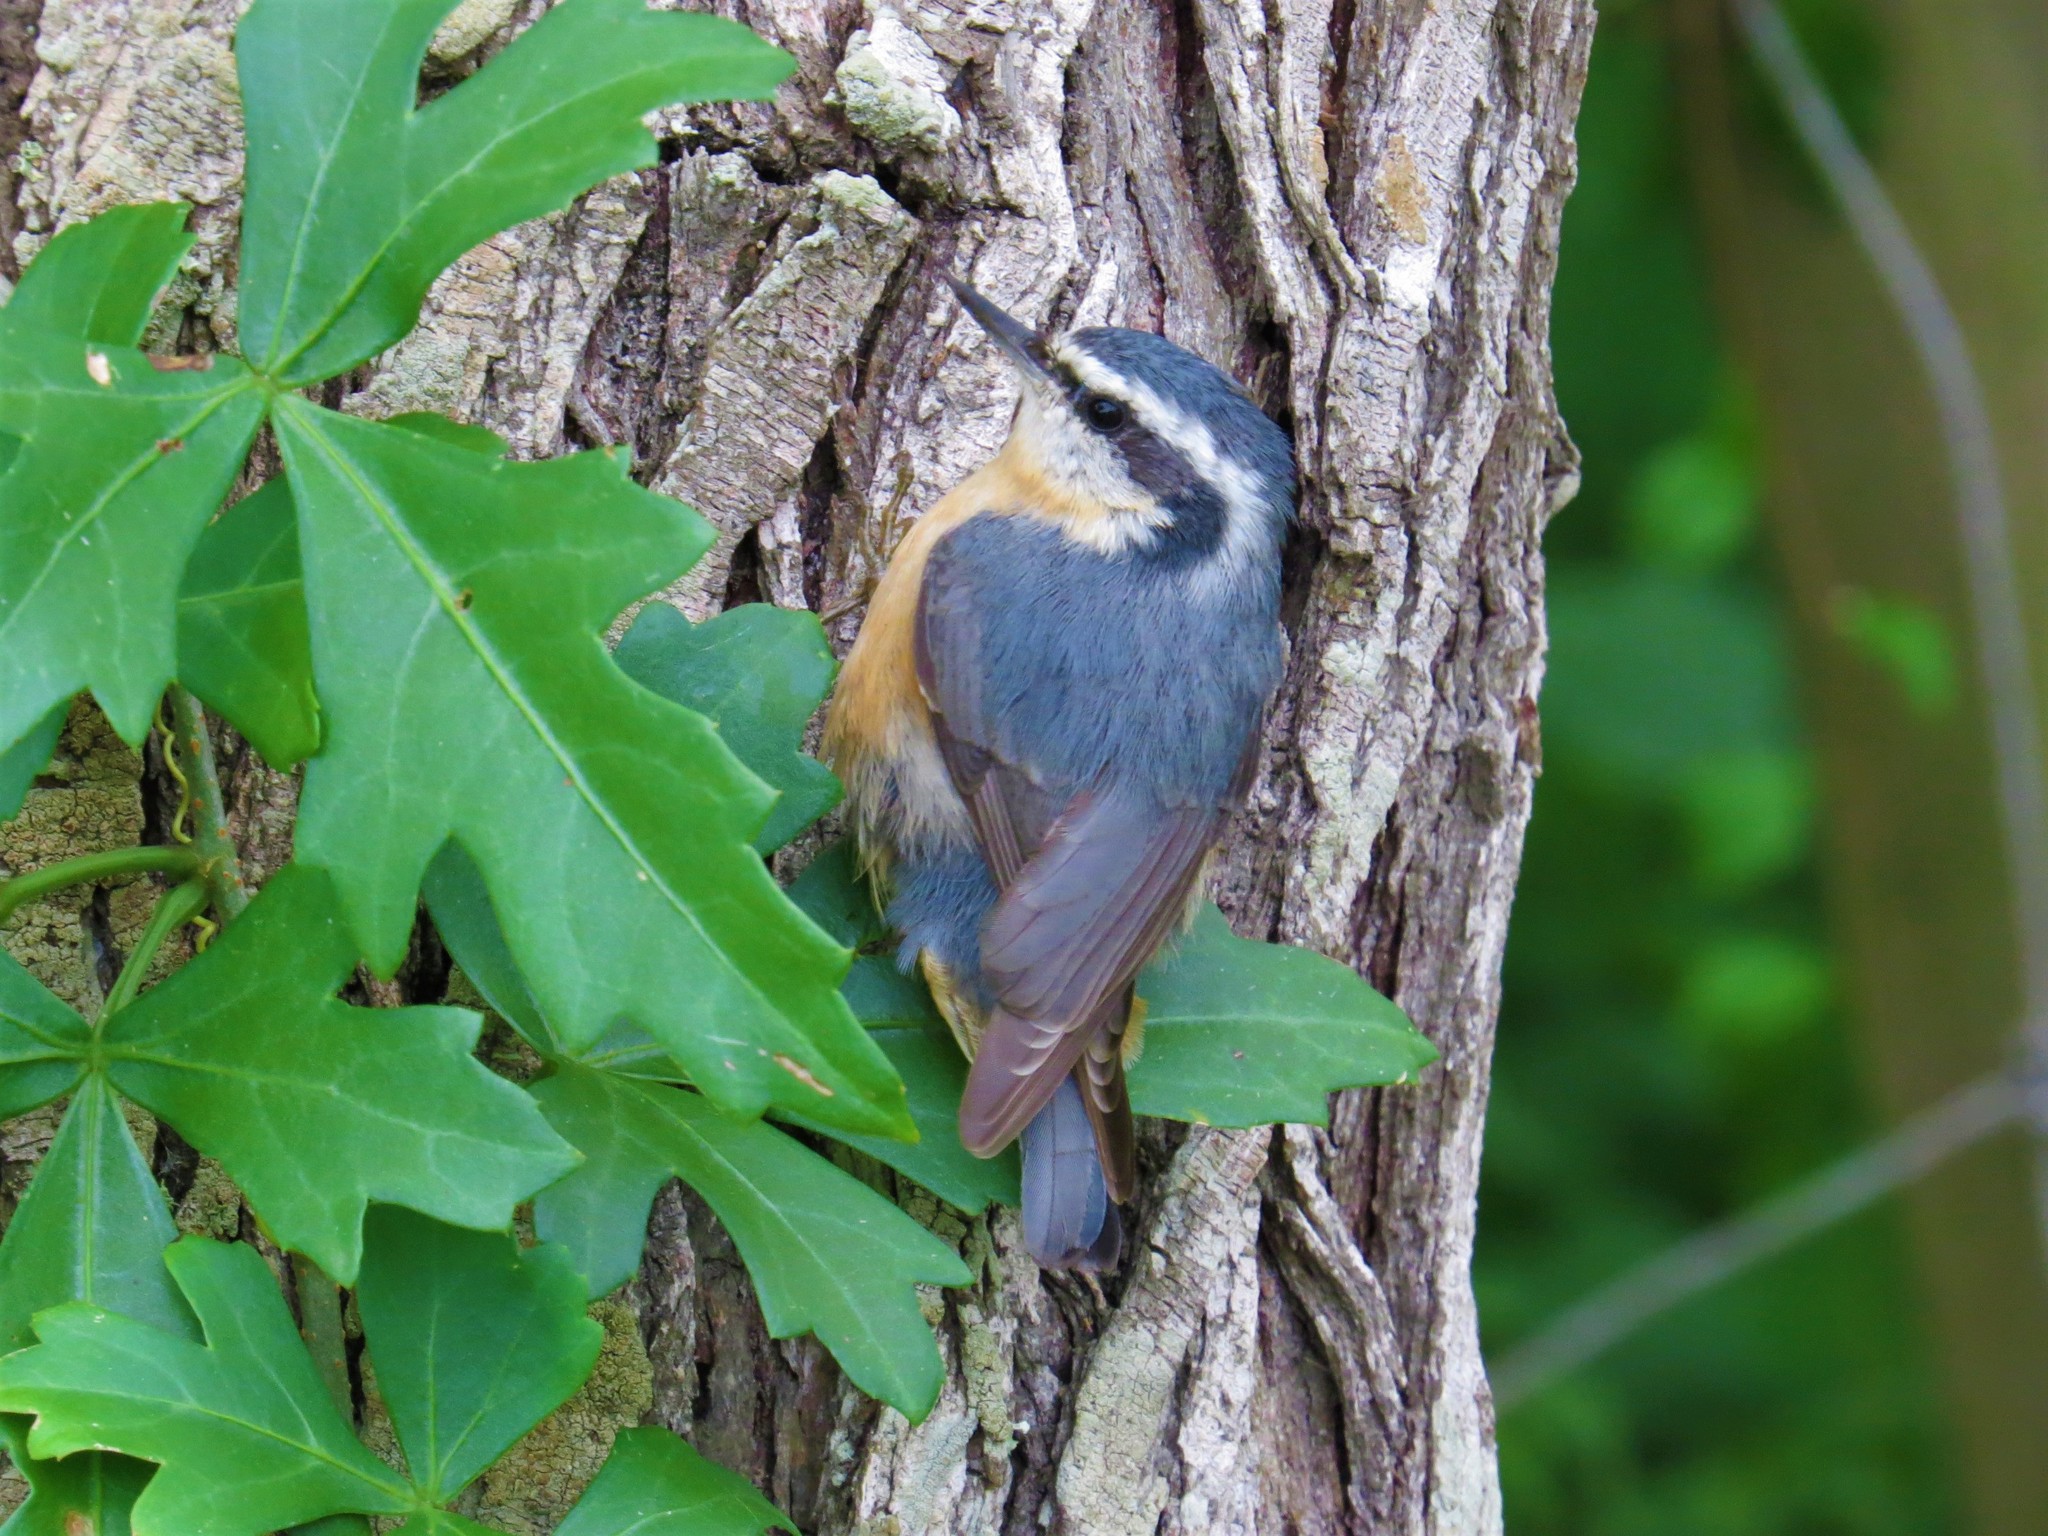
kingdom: Animalia
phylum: Chordata
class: Aves
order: Passeriformes
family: Sittidae
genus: Sitta
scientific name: Sitta canadensis
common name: Red-breasted nuthatch
